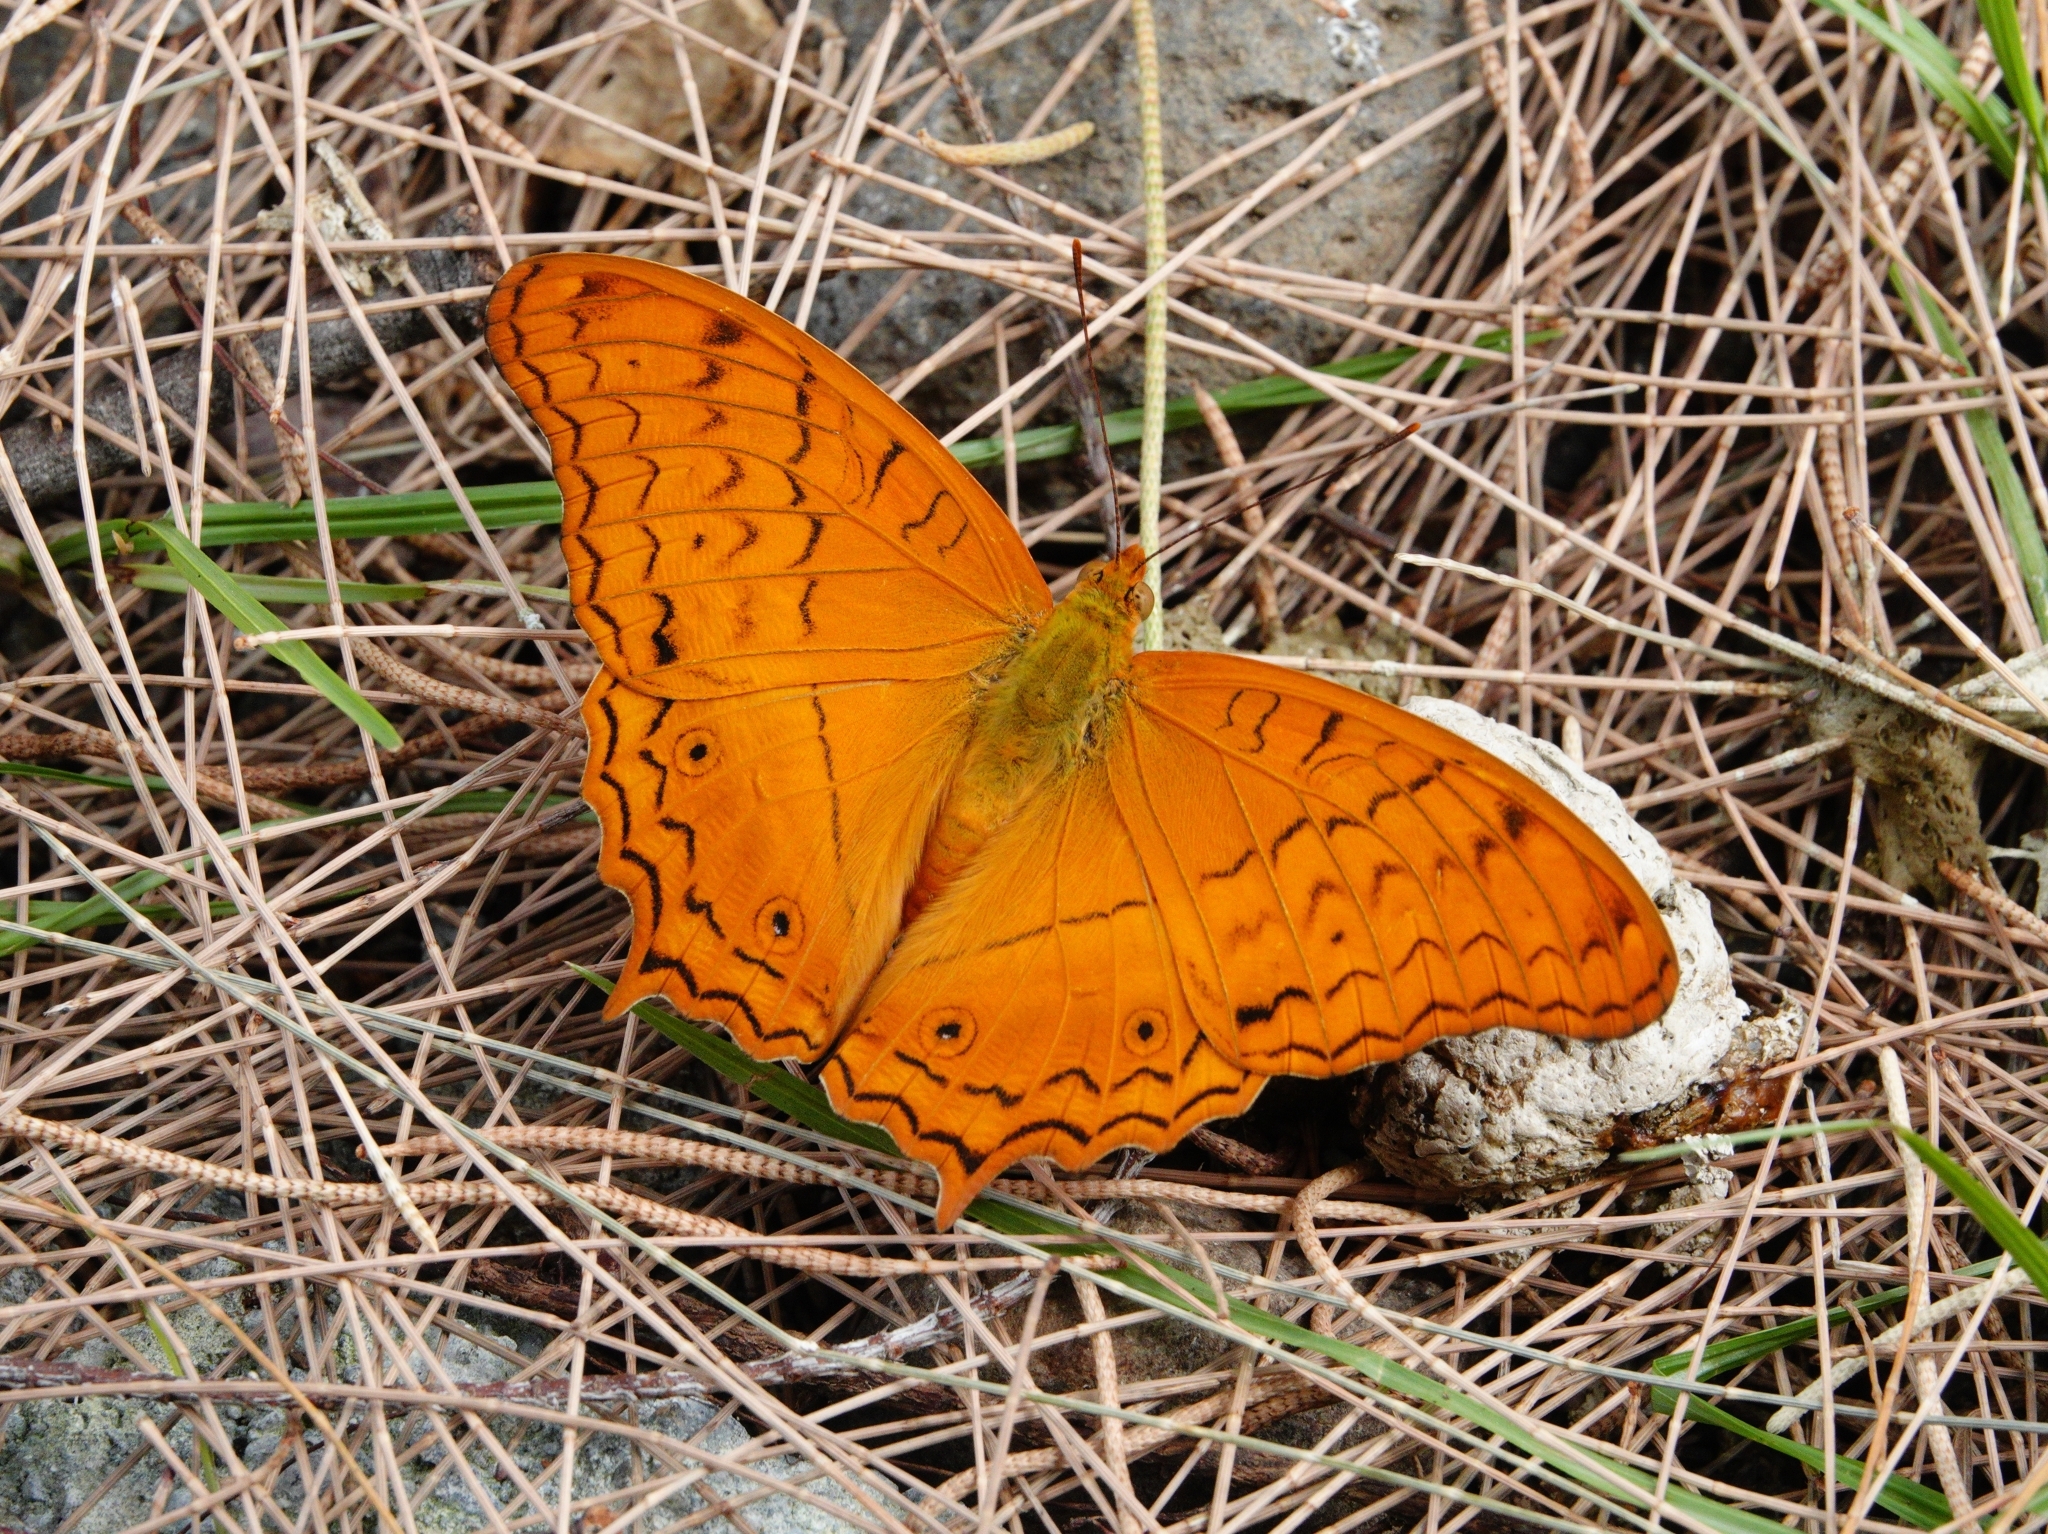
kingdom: Animalia
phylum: Arthropoda
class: Insecta
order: Lepidoptera
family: Nymphalidae
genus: Vindula
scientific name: Vindula deione
